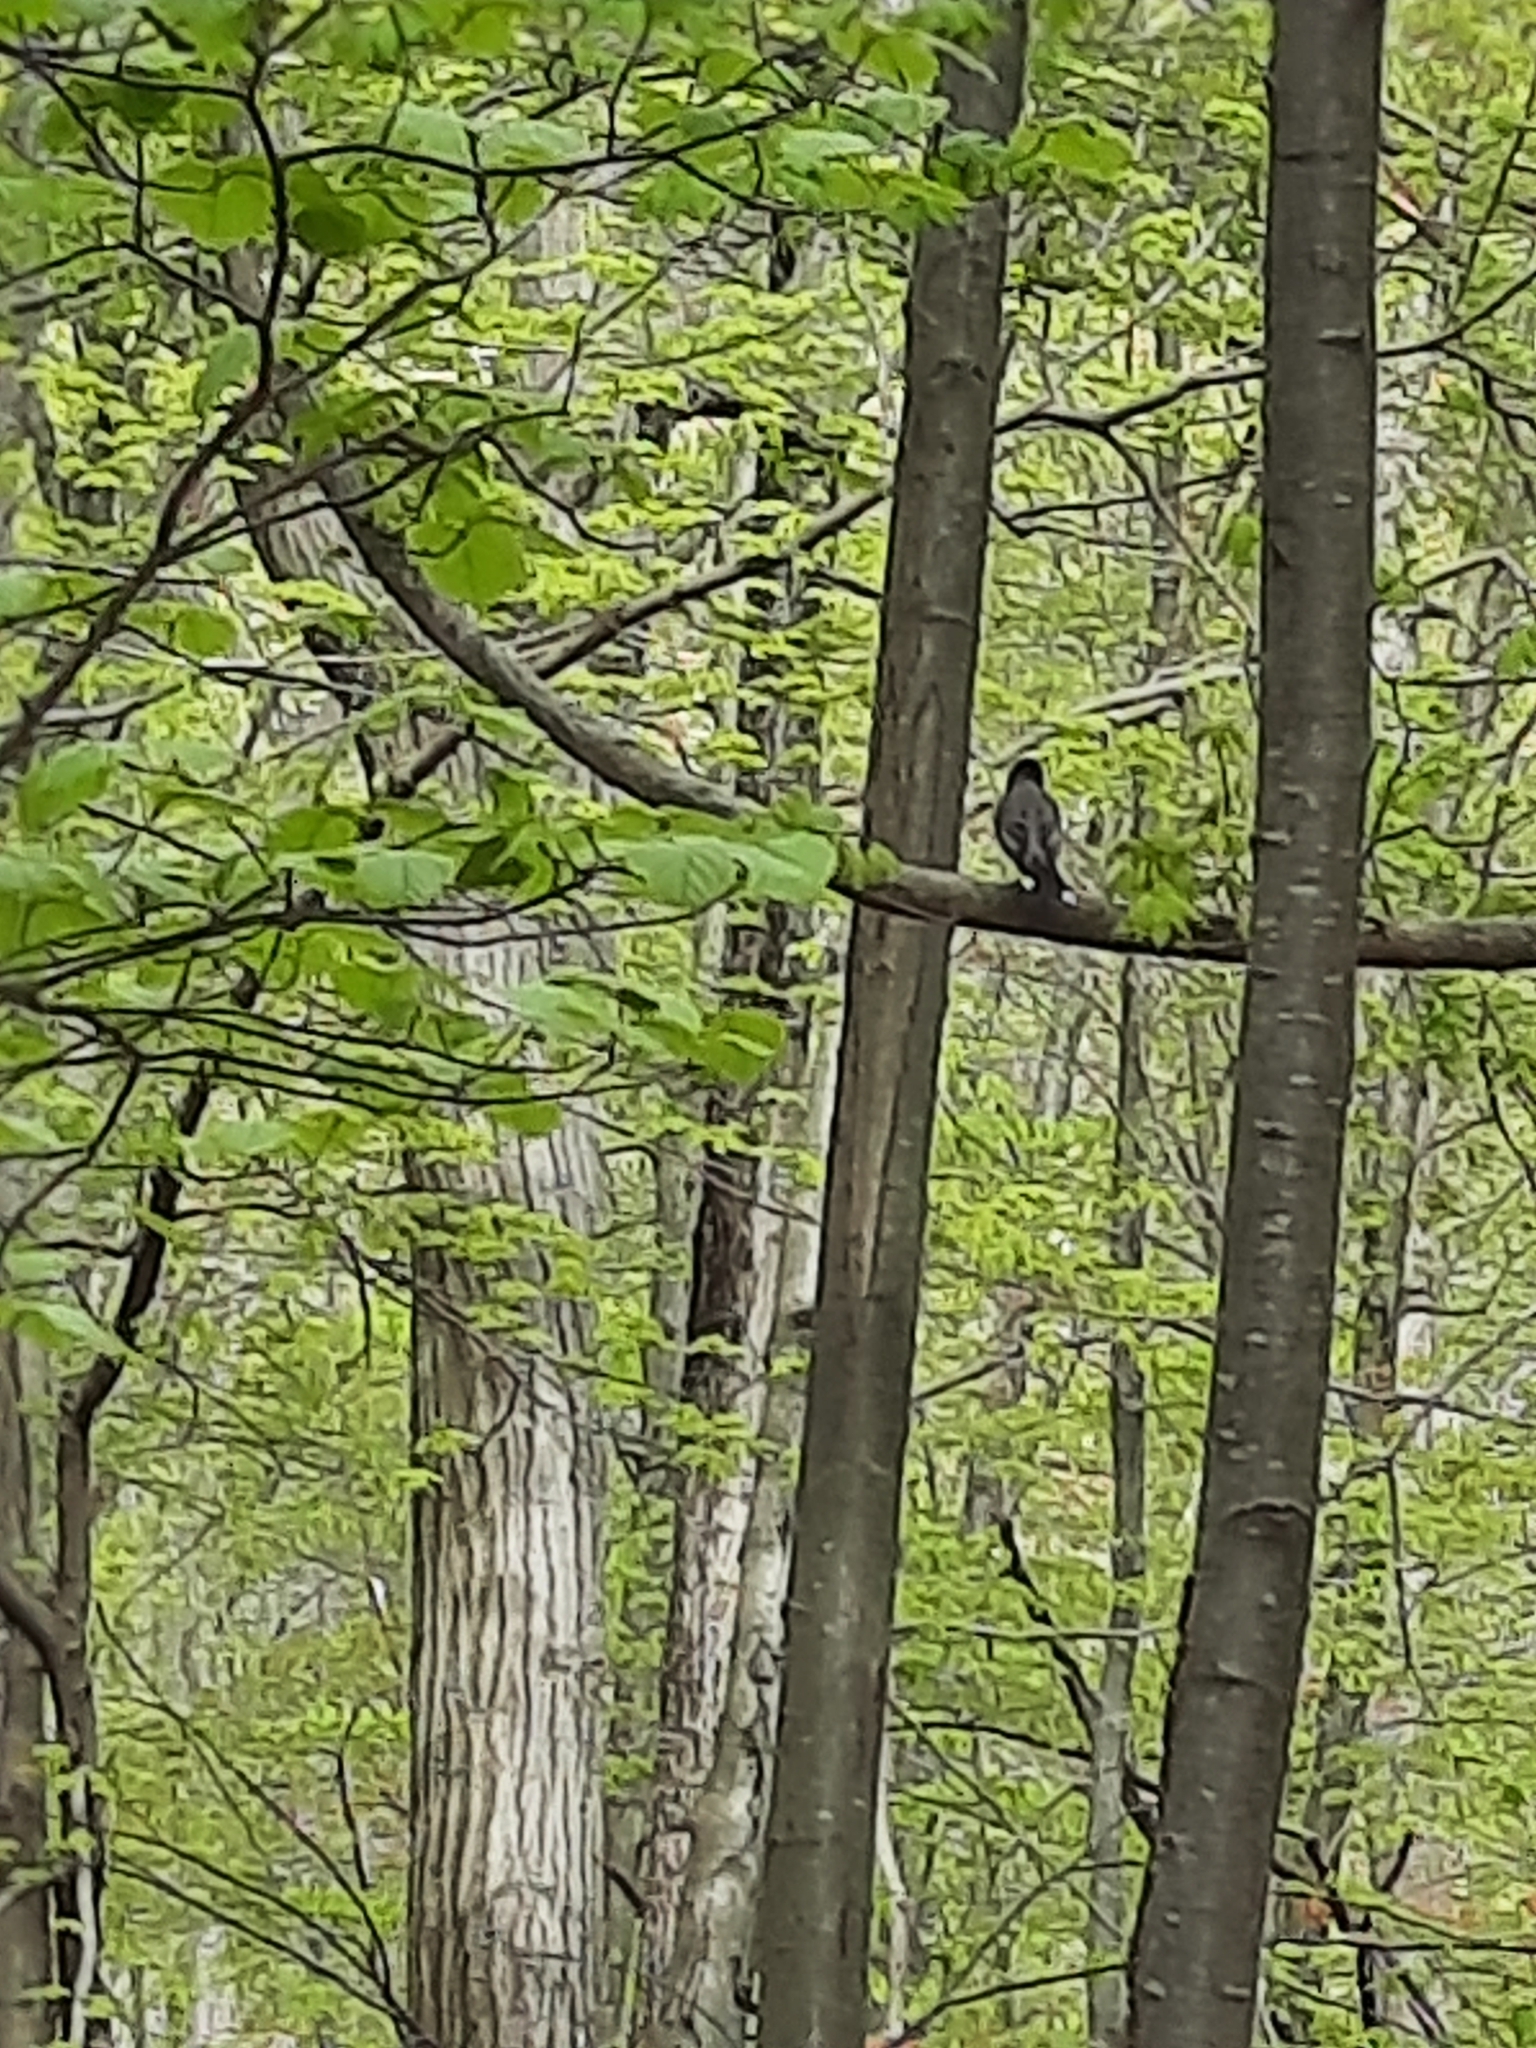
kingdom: Animalia
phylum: Chordata
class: Aves
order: Passeriformes
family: Turdidae
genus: Turdus
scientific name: Turdus migratorius
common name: American robin
